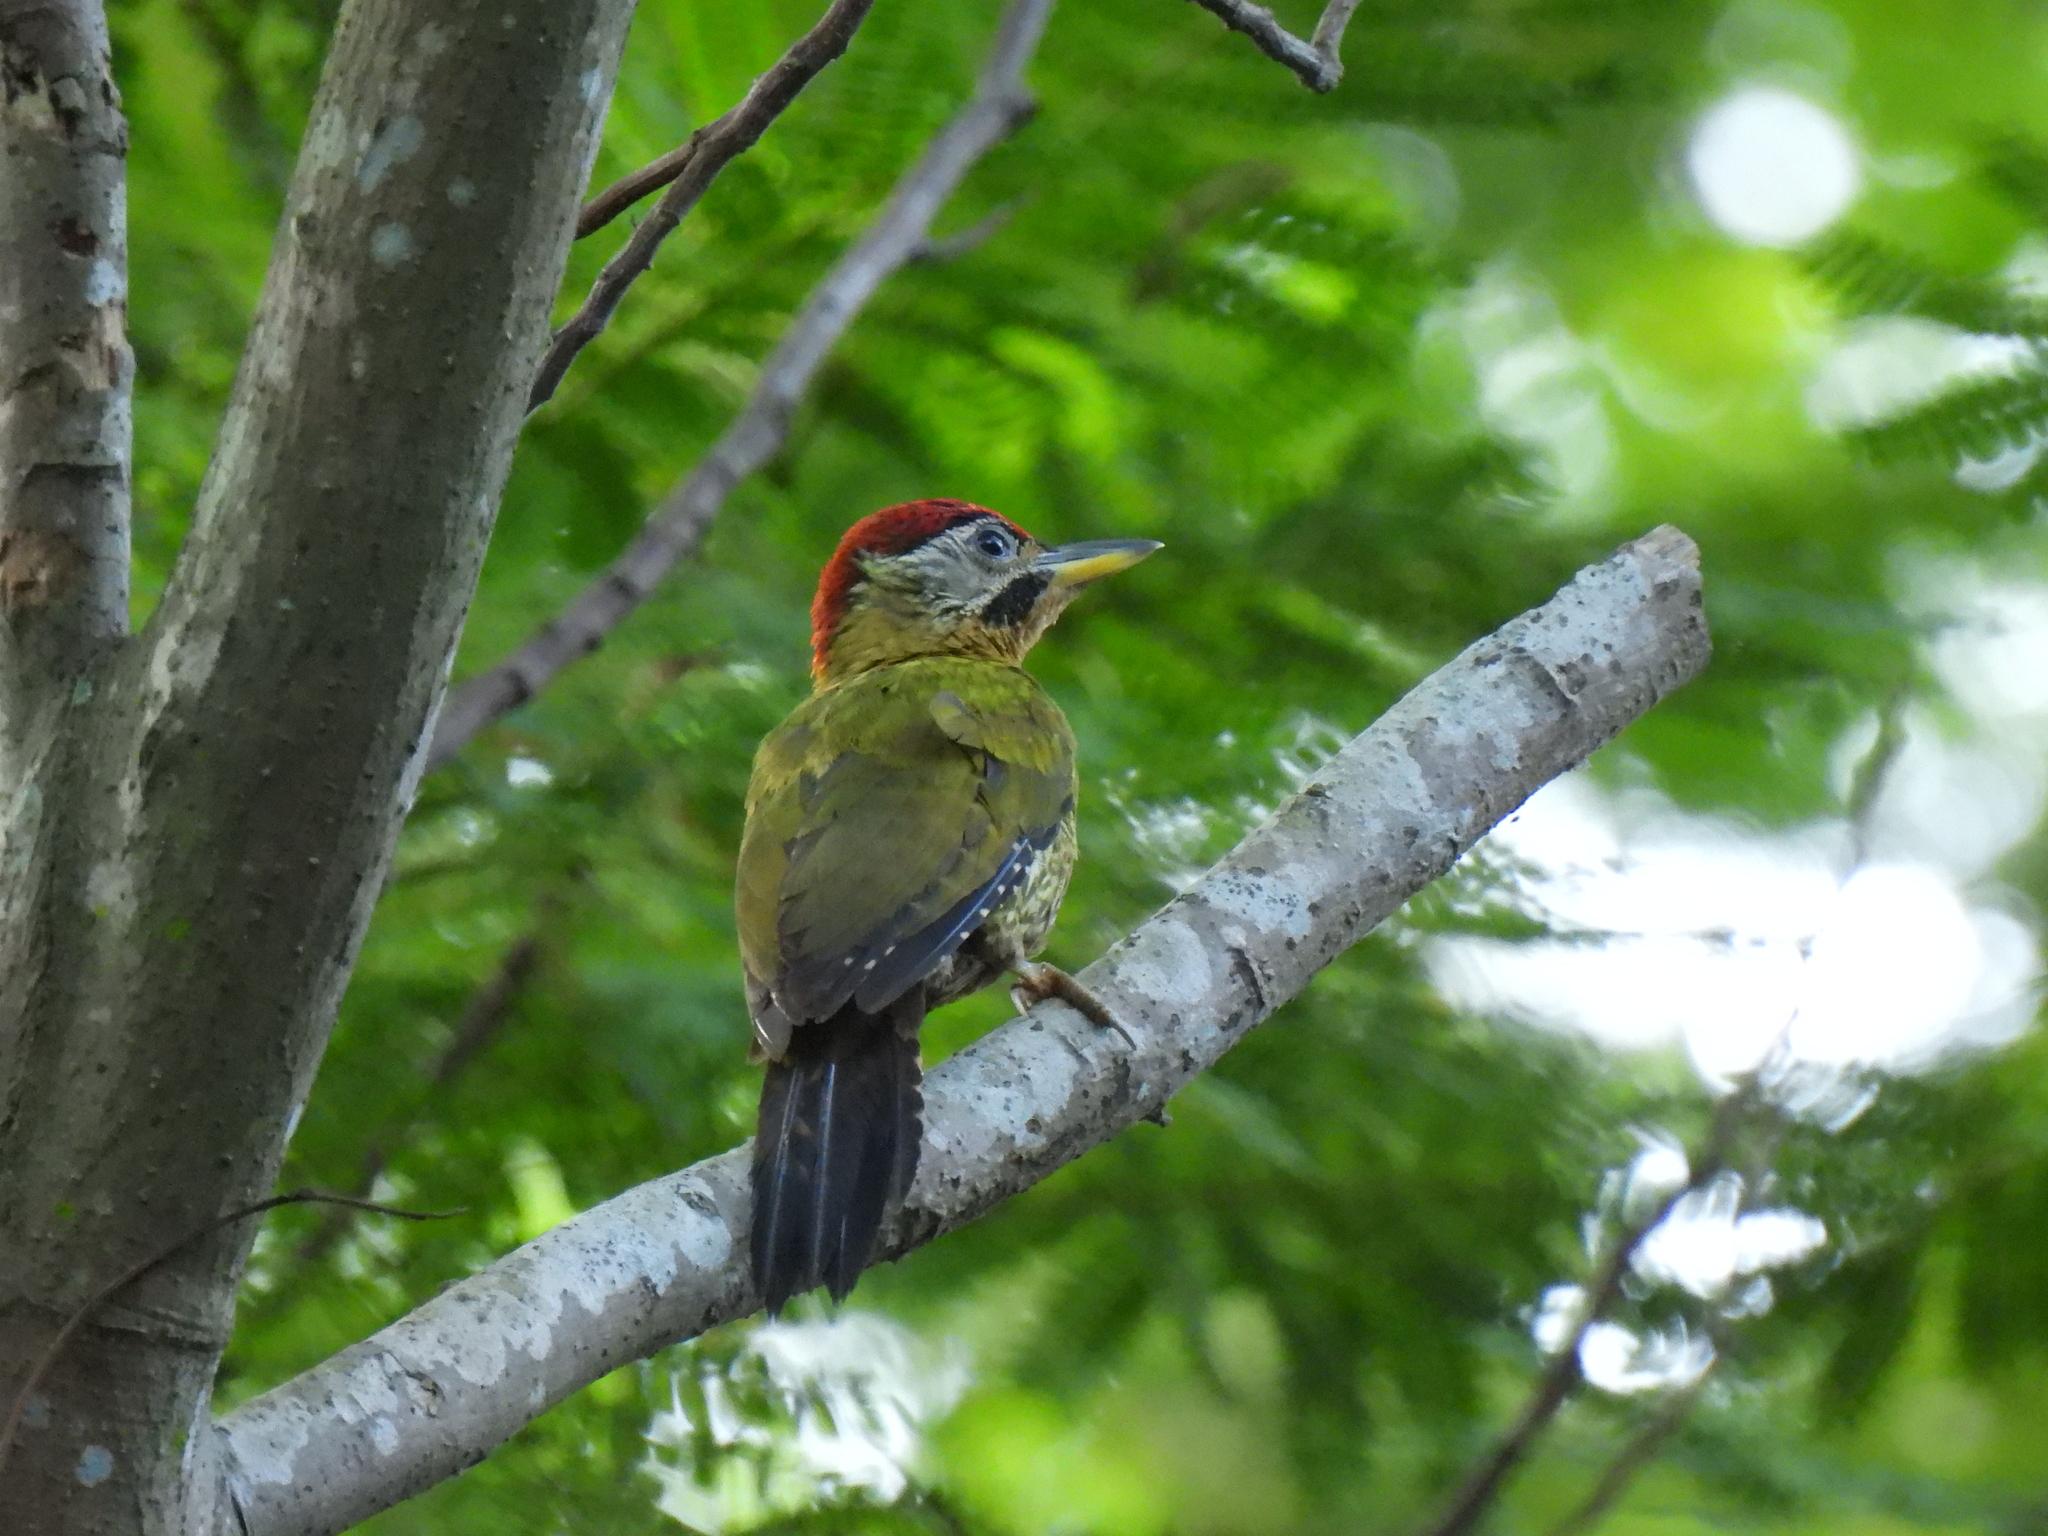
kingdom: Animalia
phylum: Chordata
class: Aves
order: Piciformes
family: Picidae
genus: Picus
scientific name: Picus vittatus
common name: Laced woodpecker
